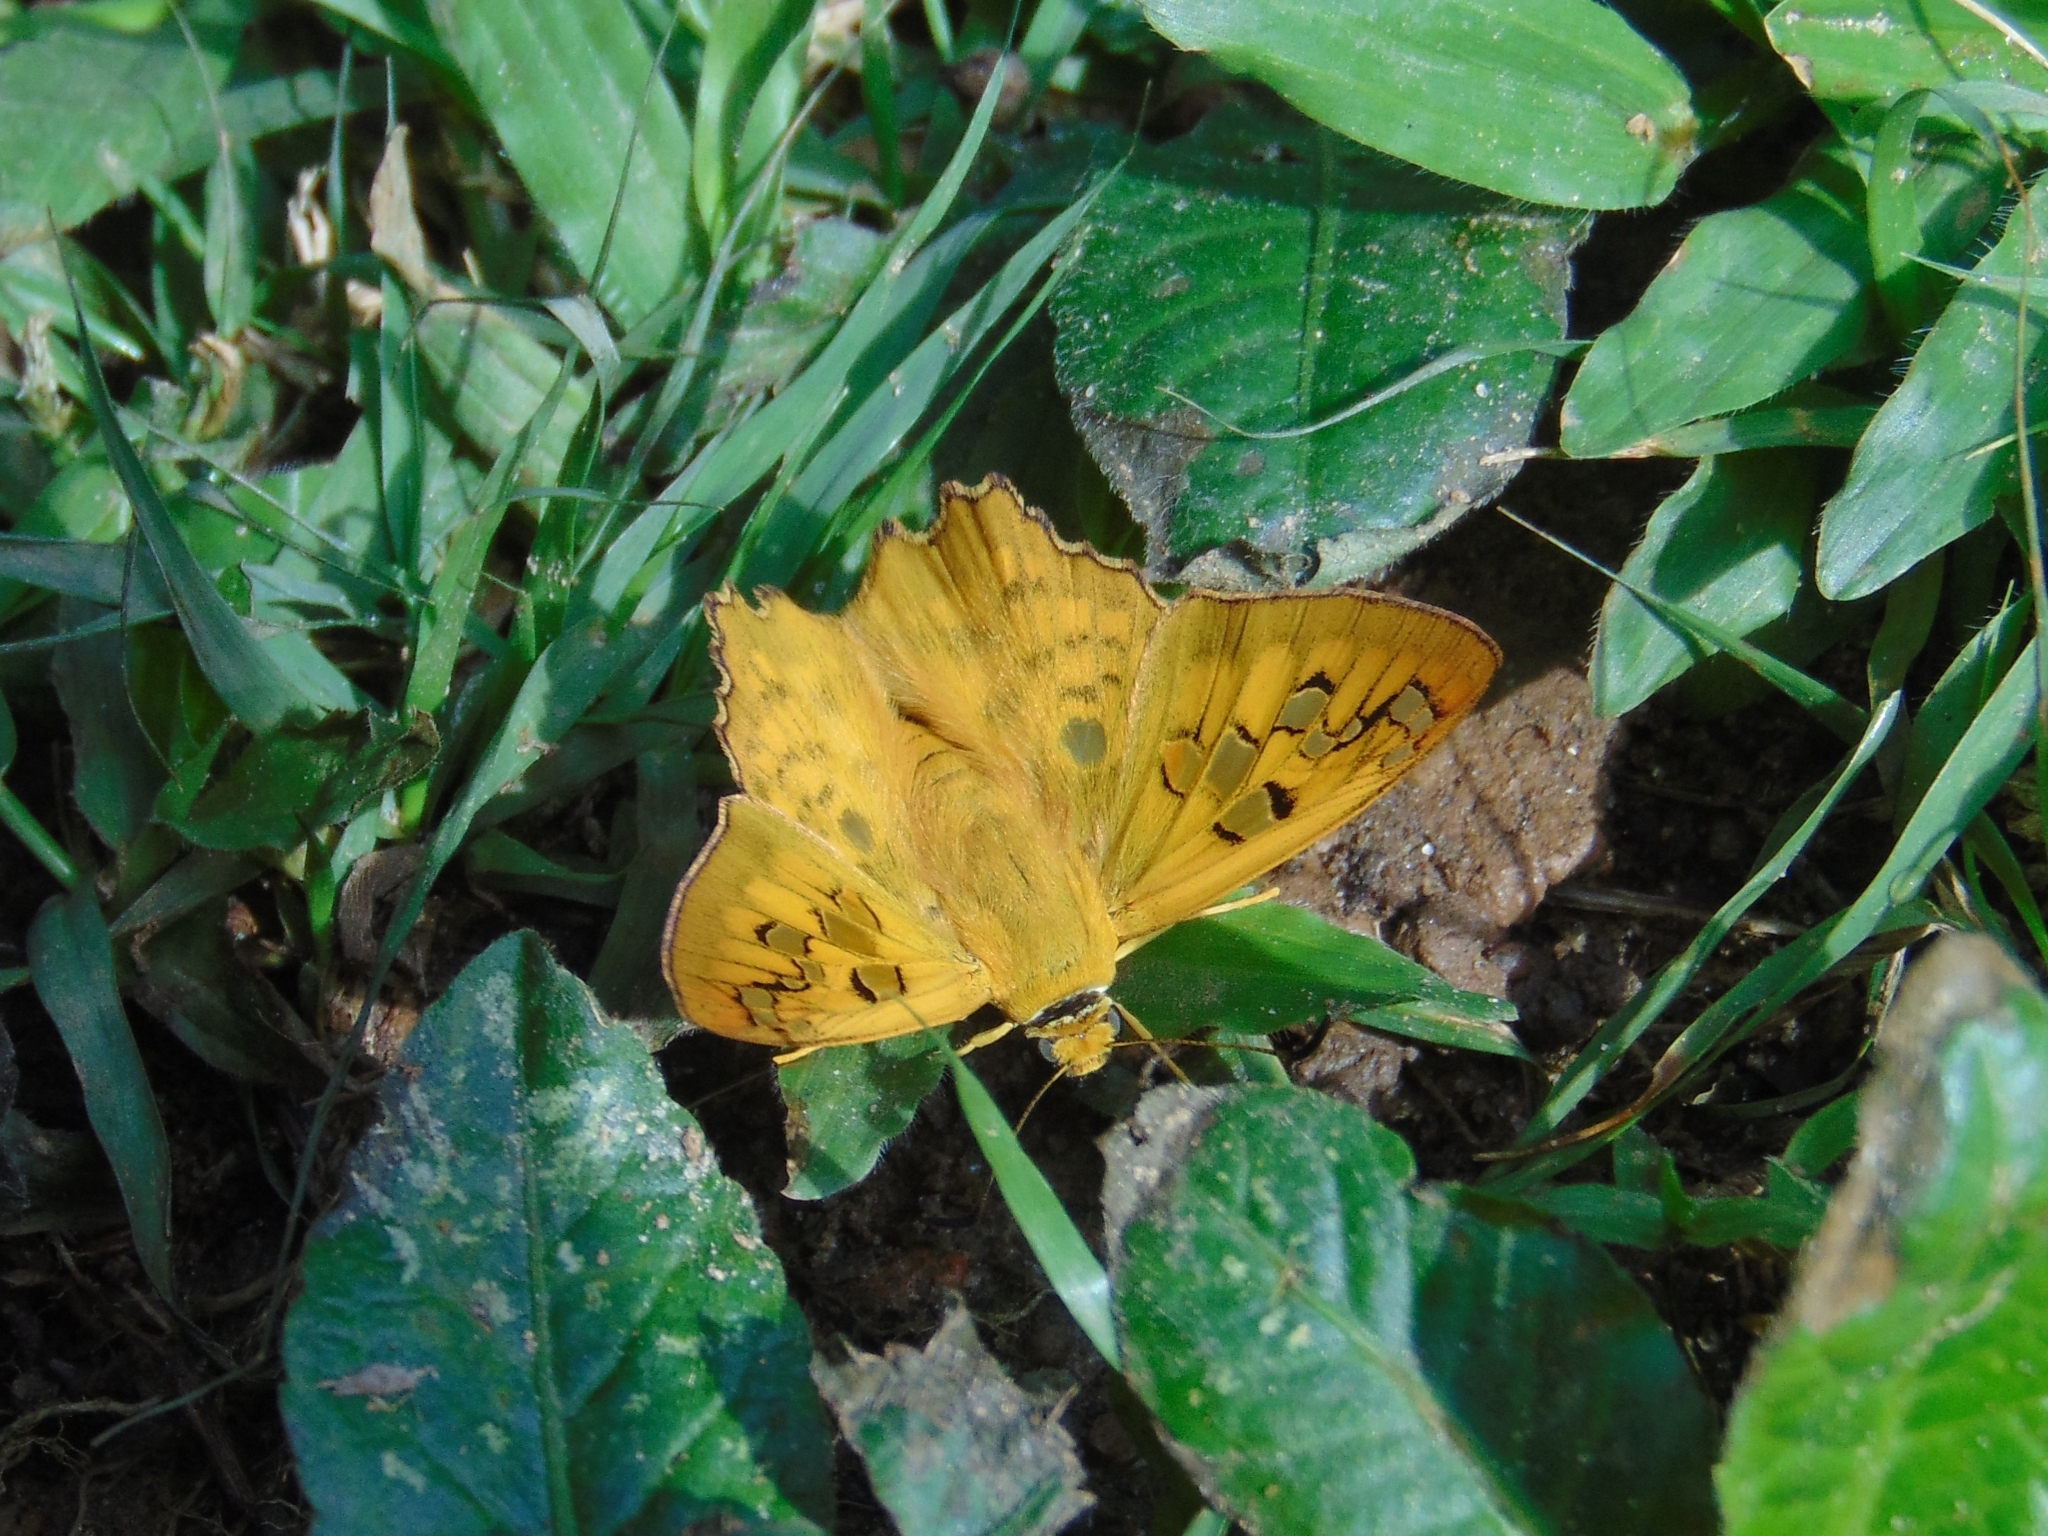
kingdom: Animalia
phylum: Arthropoda
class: Insecta
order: Lepidoptera
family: Hesperiidae
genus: Myscelus
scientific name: Myscelus amystis
